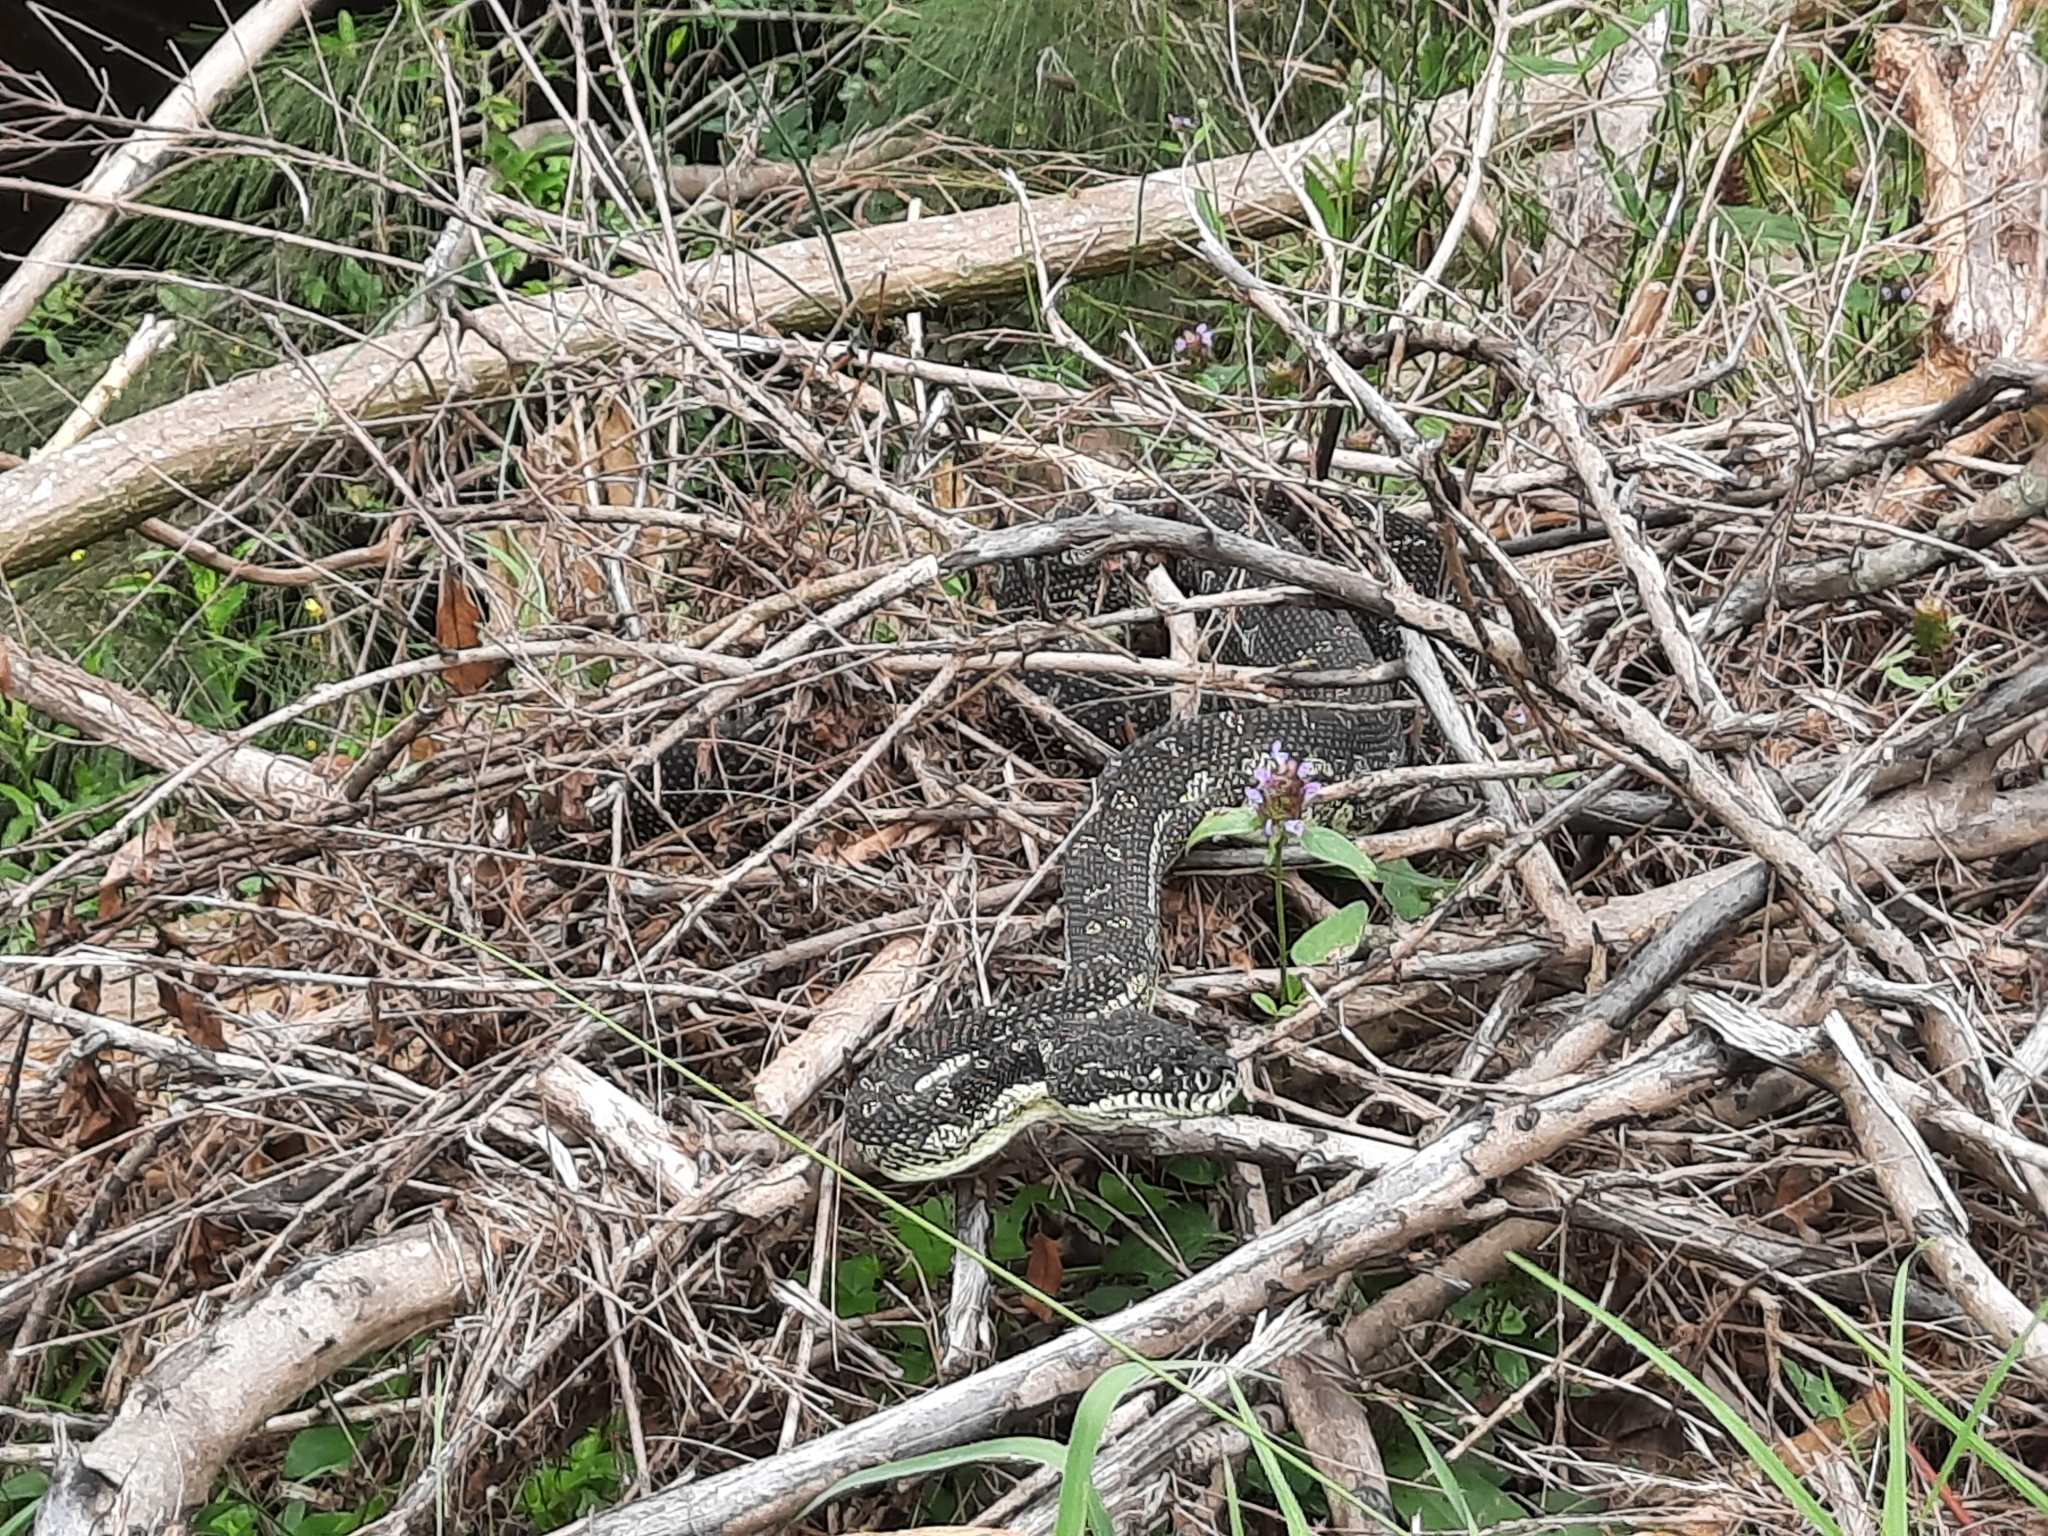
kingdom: Animalia
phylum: Chordata
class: Squamata
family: Pythonidae
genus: Morelia
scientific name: Morelia spilota
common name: Carpet python
